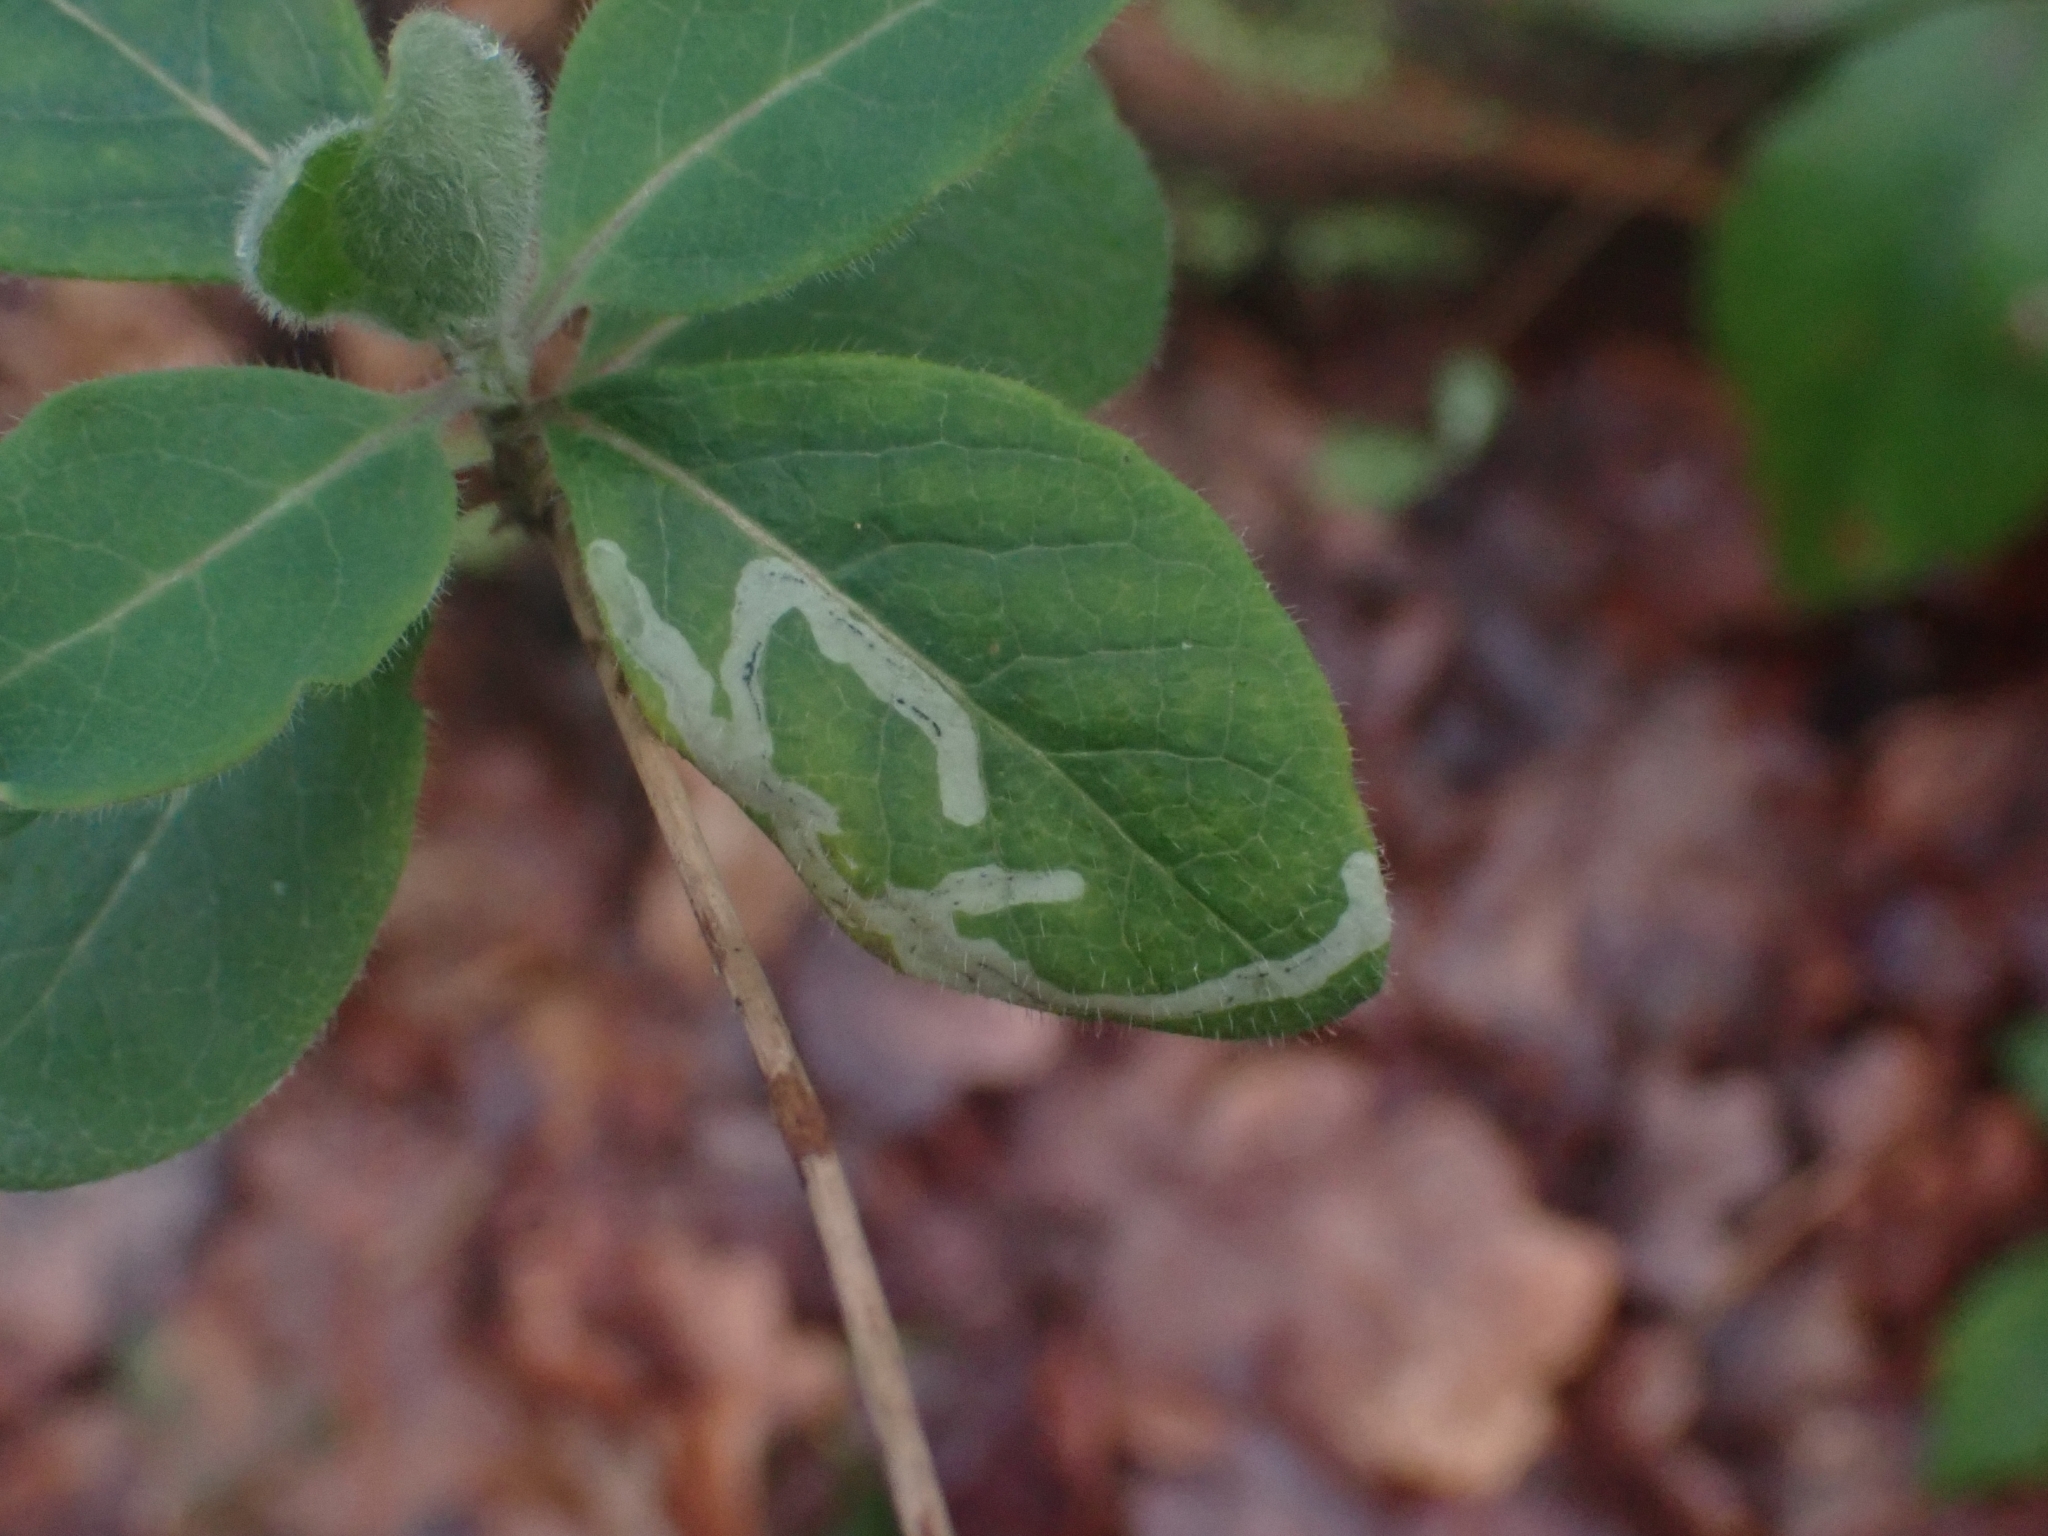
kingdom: Animalia
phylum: Arthropoda
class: Insecta
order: Diptera
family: Agromyzidae
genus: Phytomyza
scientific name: Phytomyza aprilina
